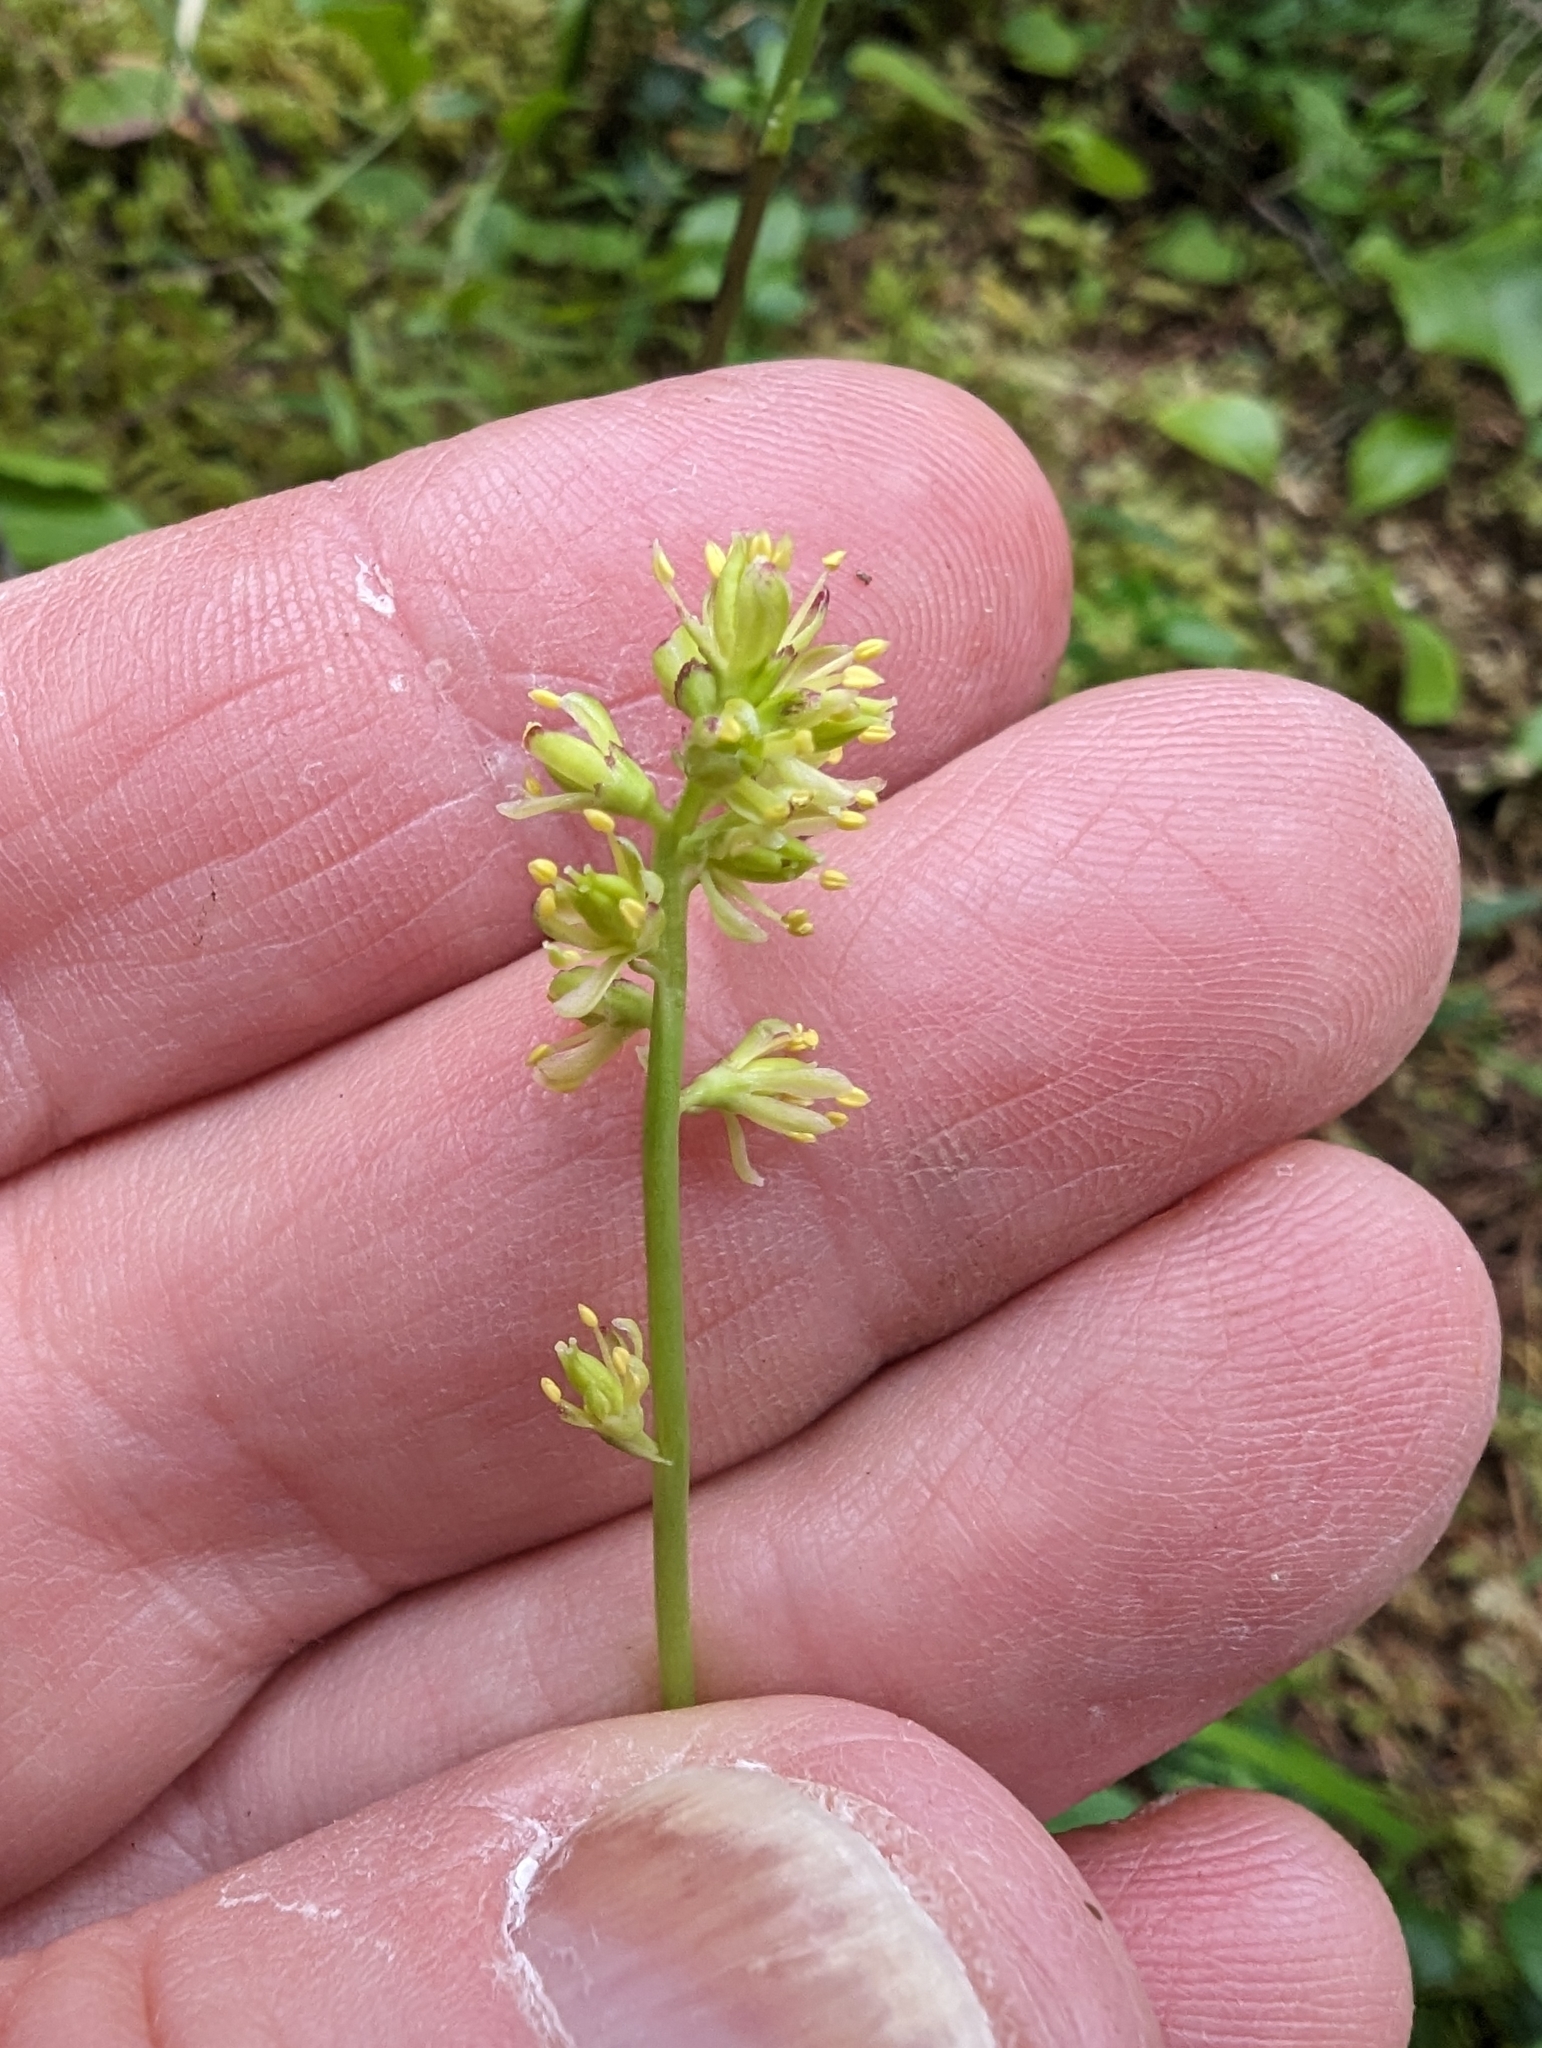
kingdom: Plantae
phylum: Tracheophyta
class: Liliopsida
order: Alismatales
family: Tofieldiaceae
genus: Tofieldia
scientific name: Tofieldia calyculata
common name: German-asphodel
